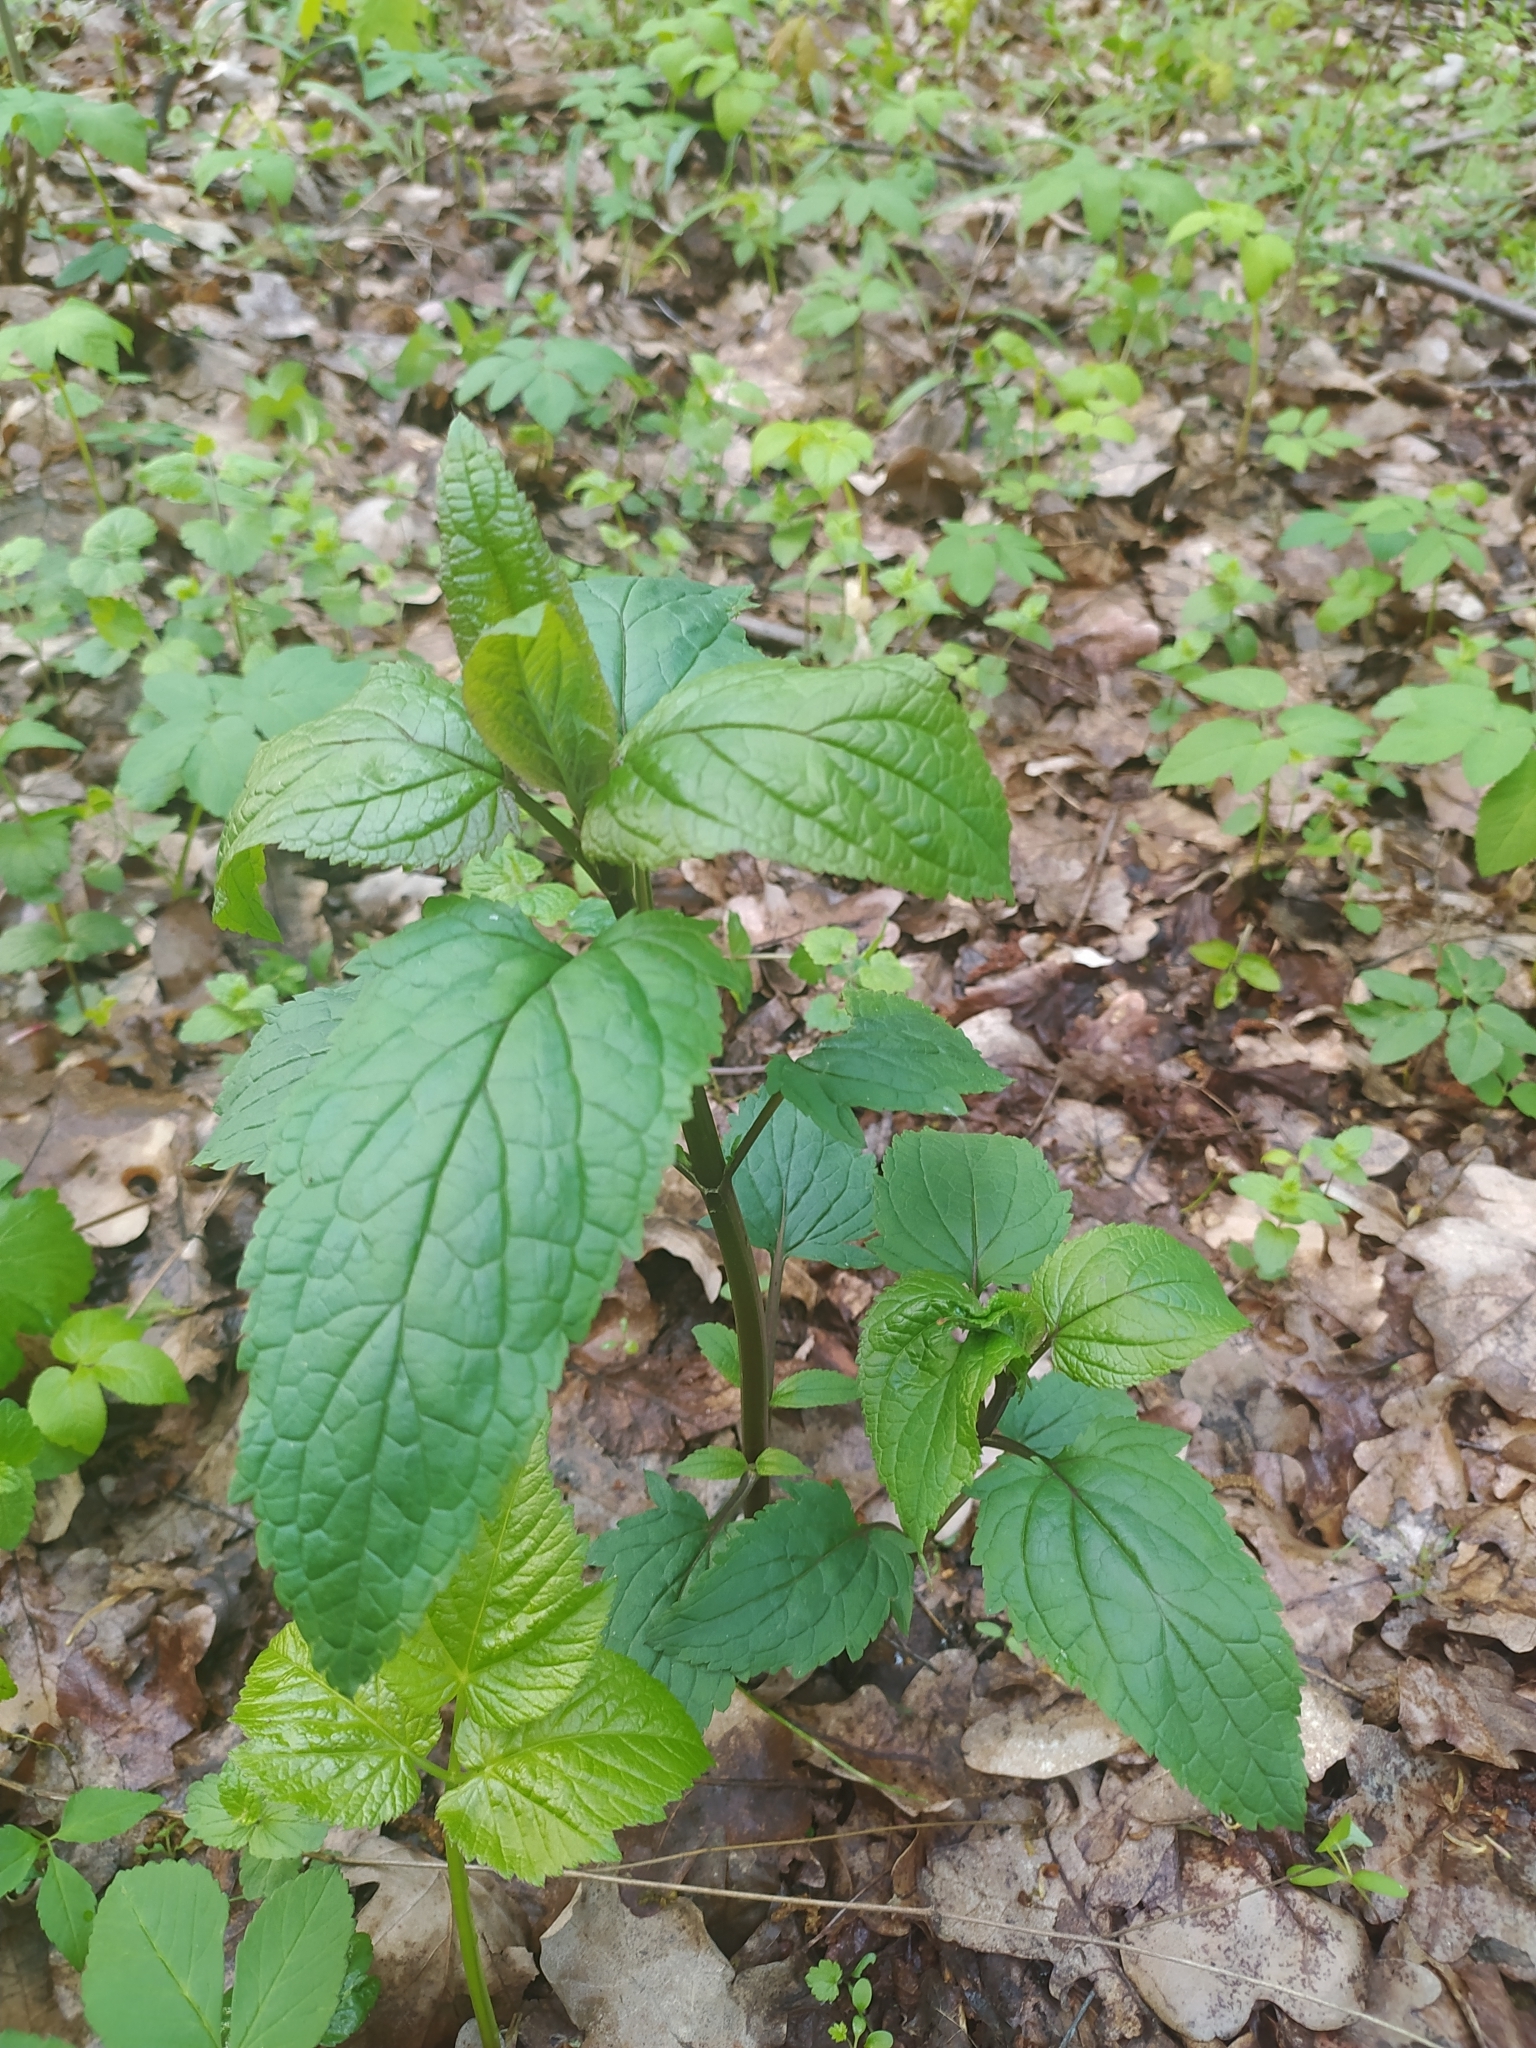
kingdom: Plantae
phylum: Tracheophyta
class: Magnoliopsida
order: Lamiales
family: Scrophulariaceae
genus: Scrophularia
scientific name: Scrophularia nodosa
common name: Common figwort
